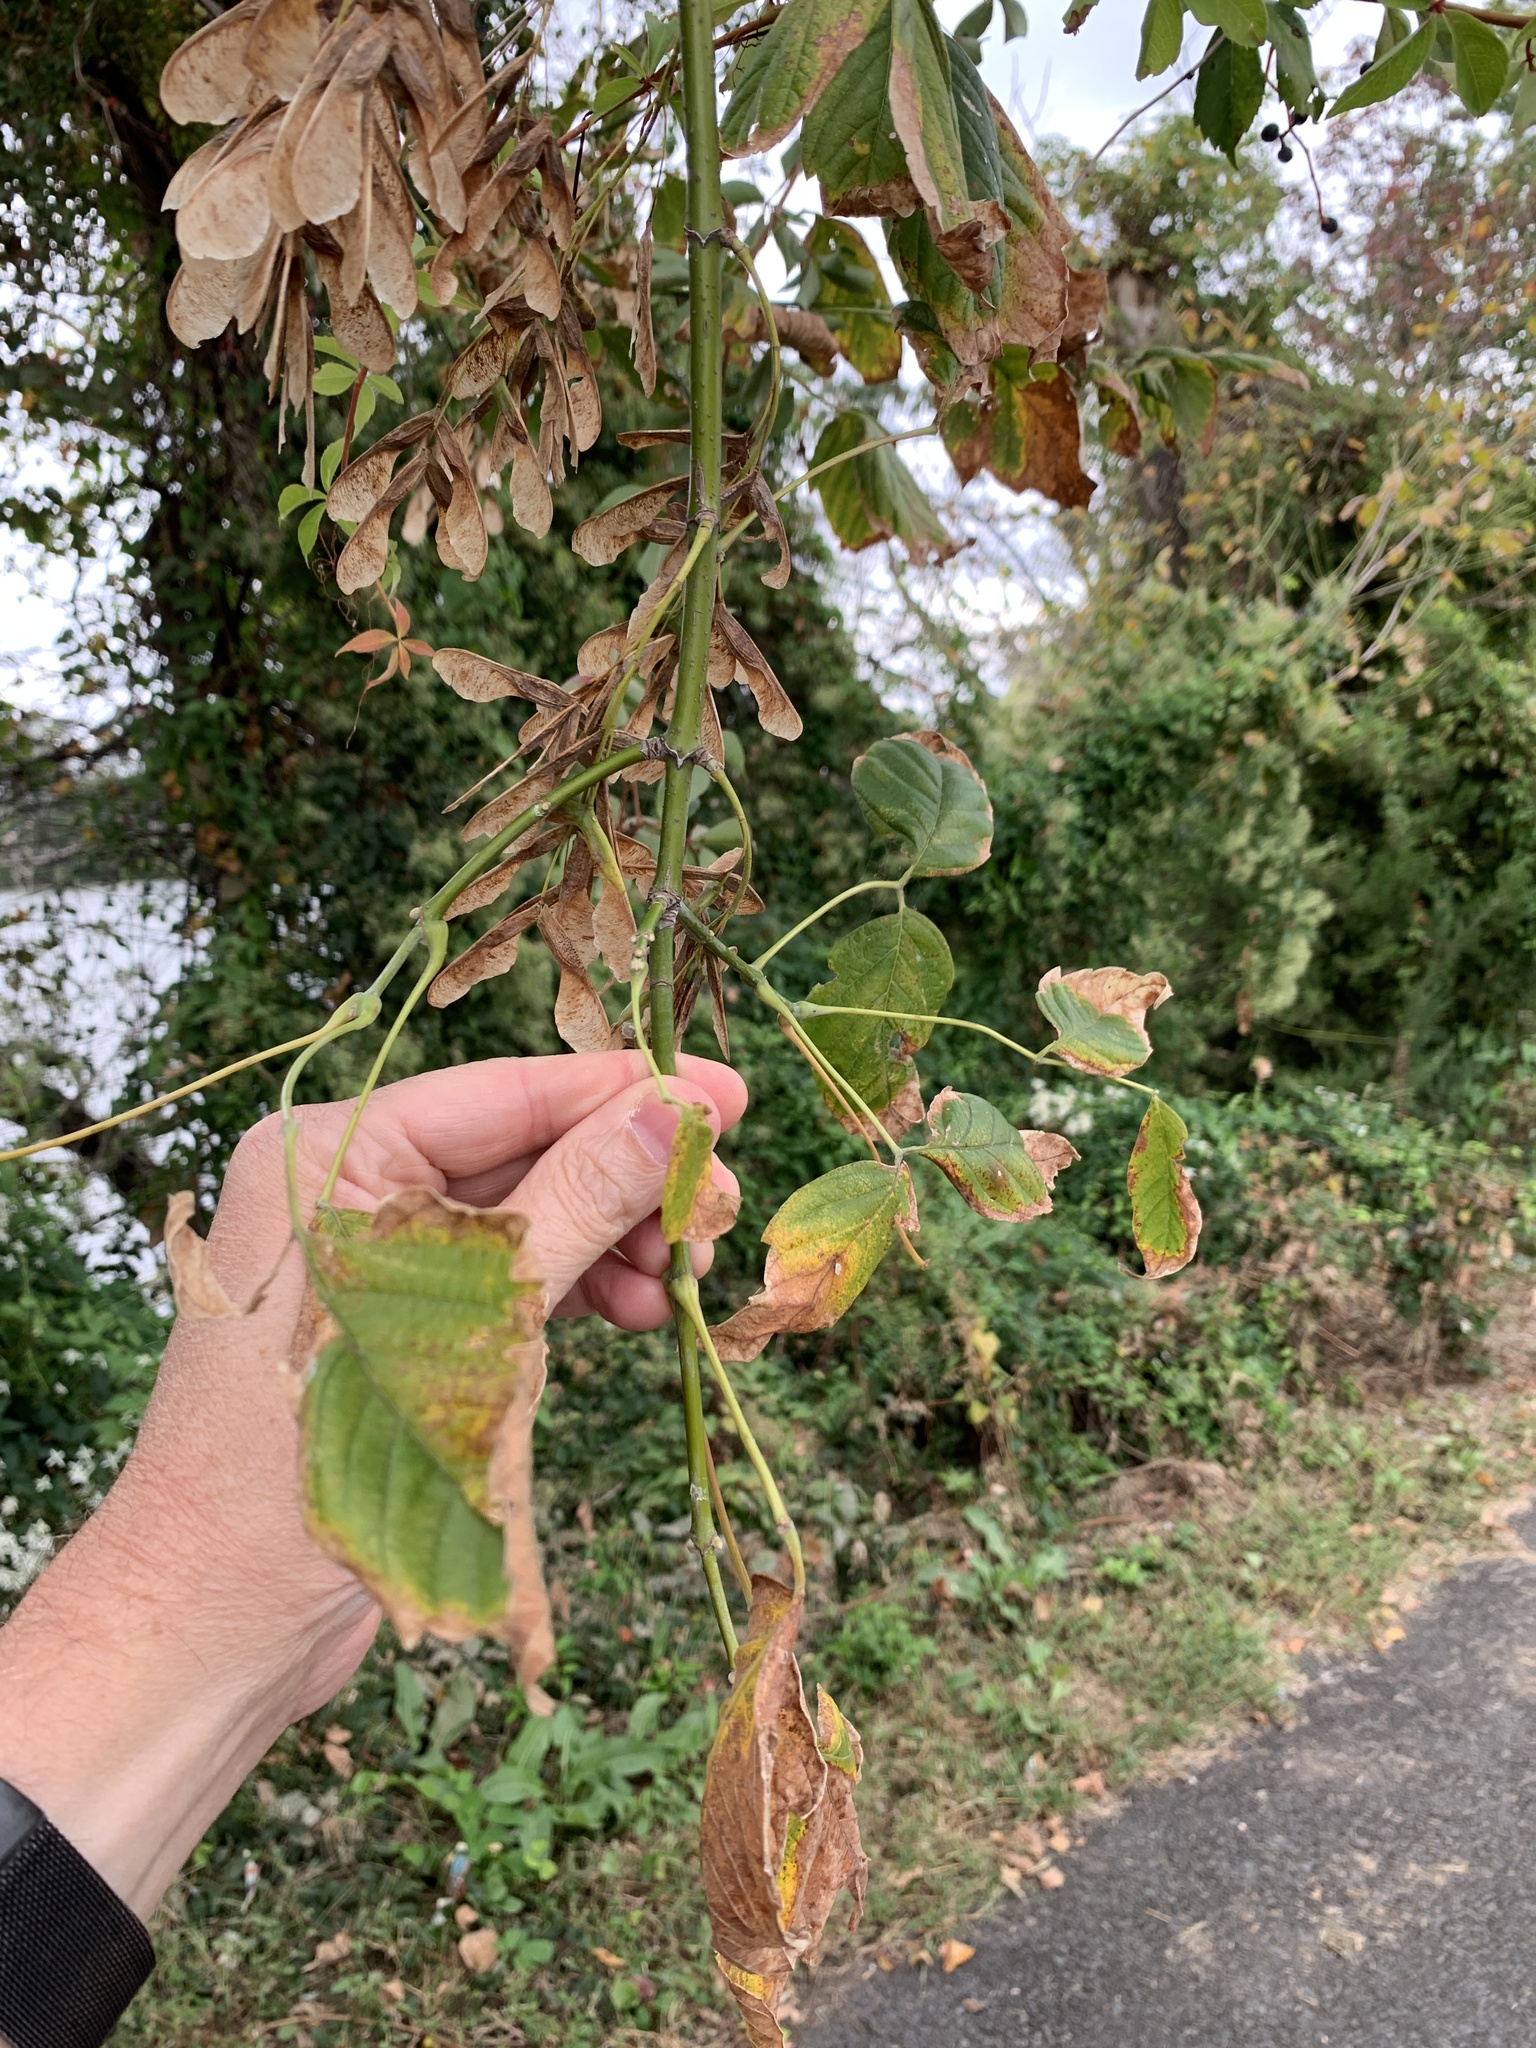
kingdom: Plantae
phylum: Tracheophyta
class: Magnoliopsida
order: Sapindales
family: Sapindaceae
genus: Acer
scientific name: Acer negundo
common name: Ashleaf maple
